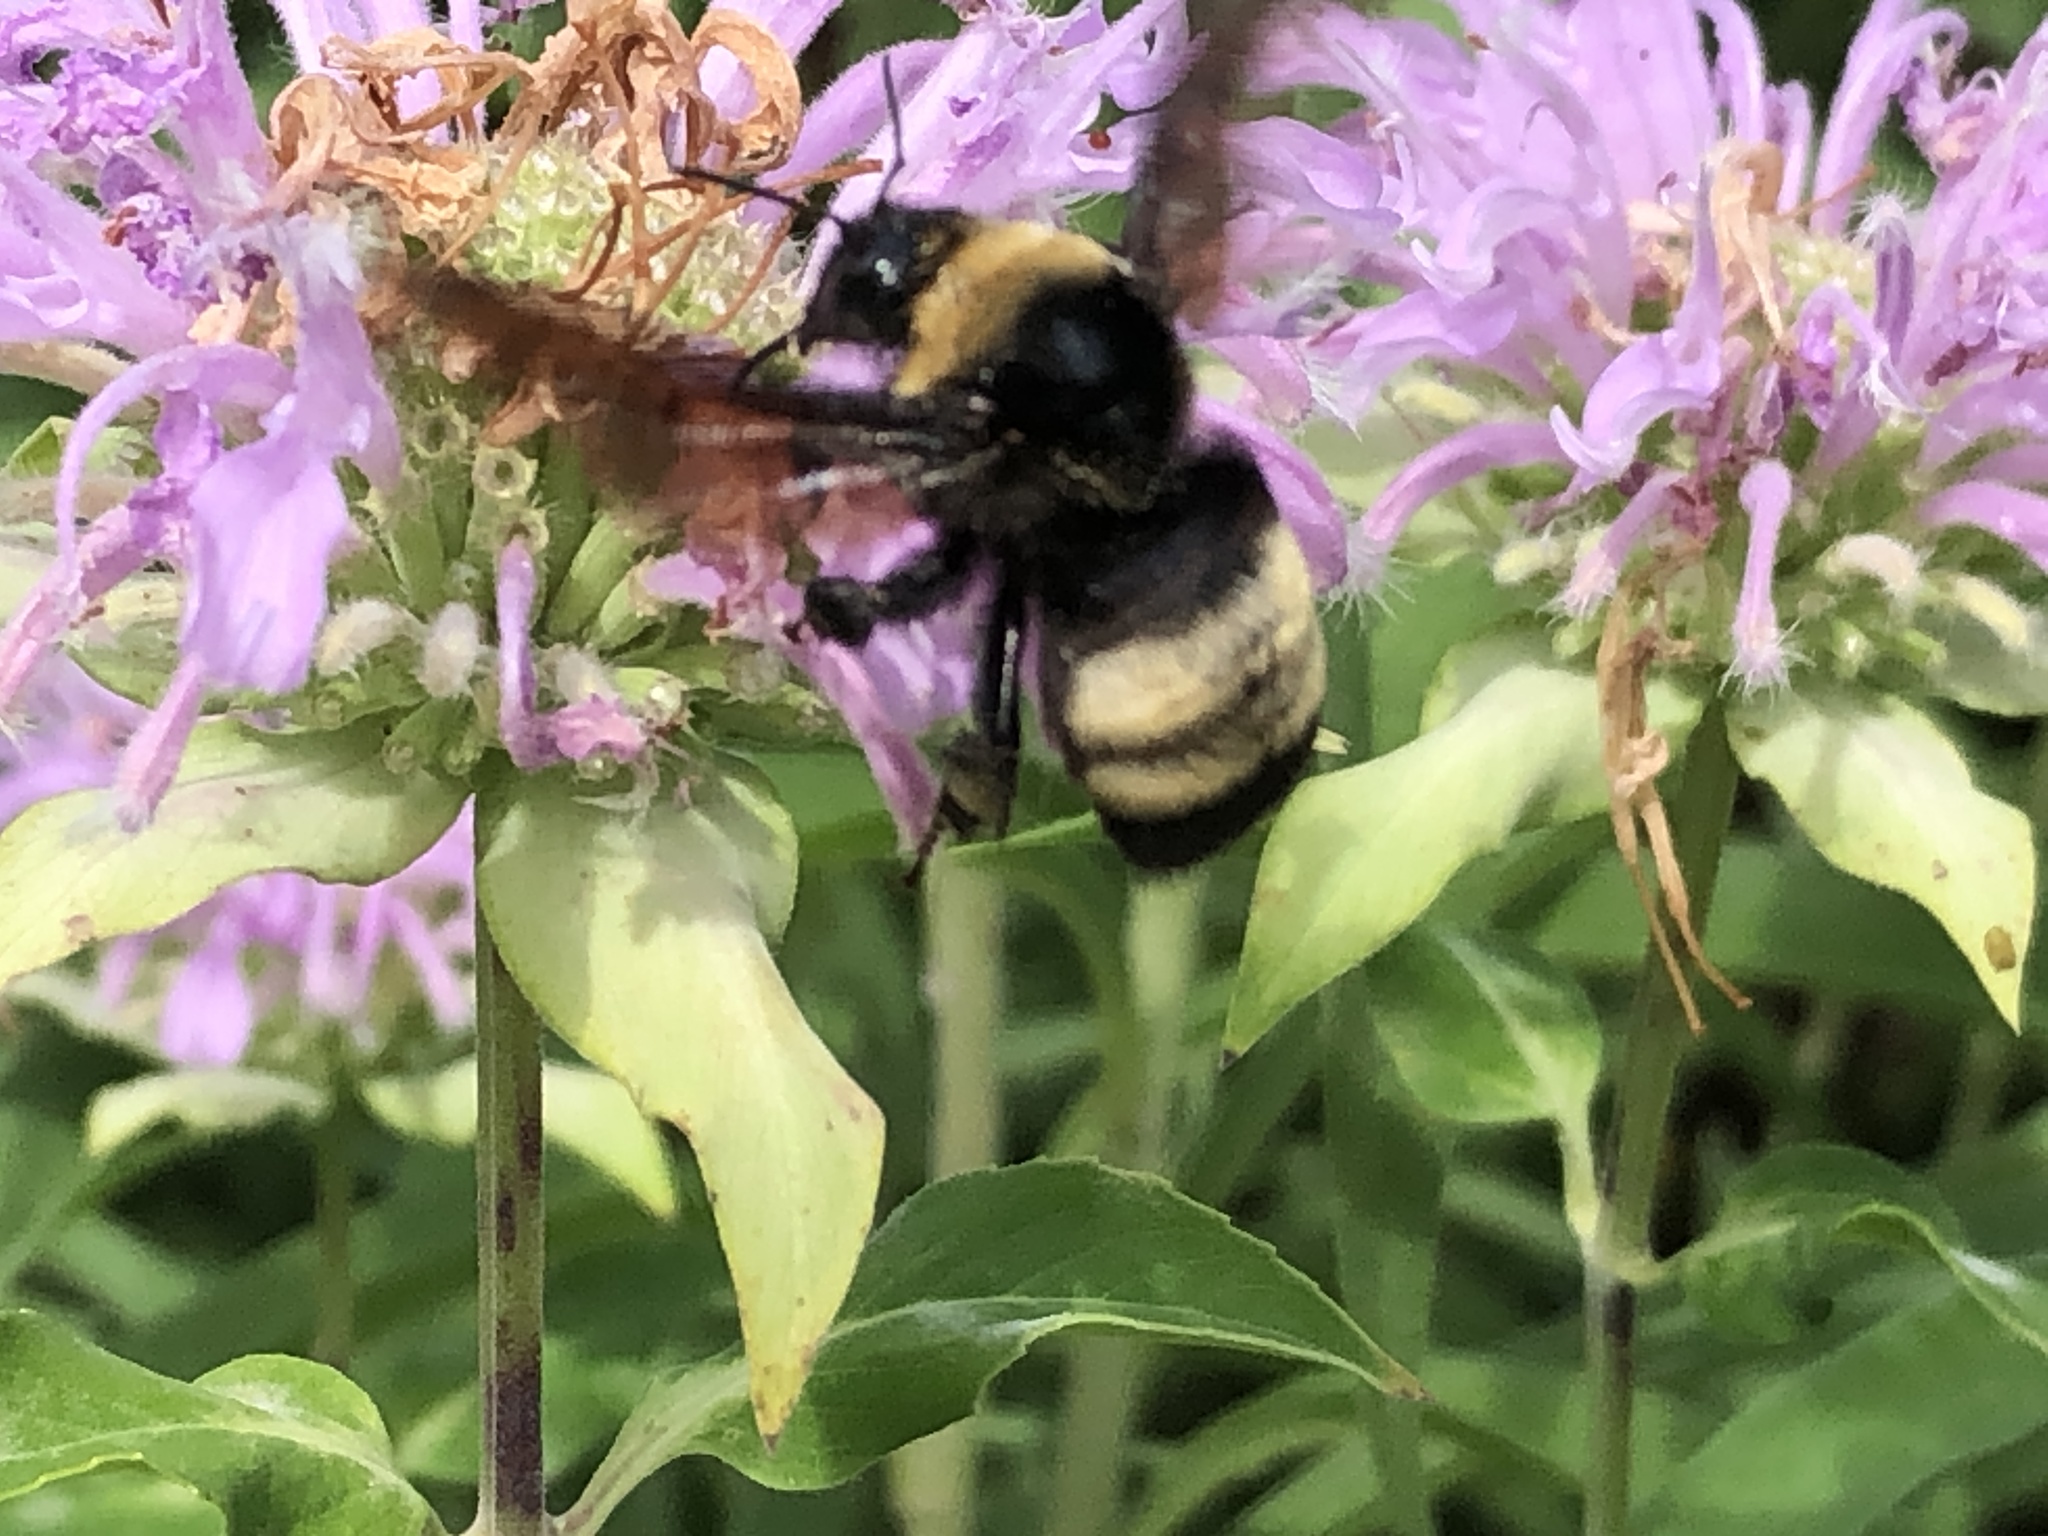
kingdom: Animalia
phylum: Arthropoda
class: Insecta
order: Hymenoptera
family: Apidae
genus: Bombus
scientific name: Bombus auricomus
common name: Black and gold bumble bee
